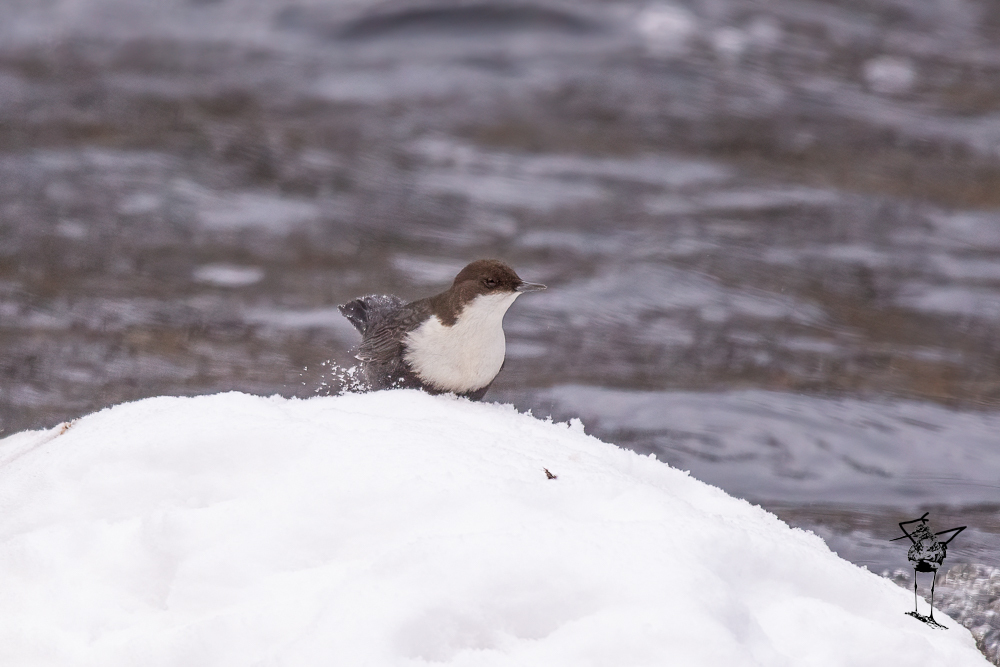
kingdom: Animalia
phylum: Chordata
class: Aves
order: Passeriformes
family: Cinclidae
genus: Cinclus
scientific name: Cinclus cinclus
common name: White-throated dipper
